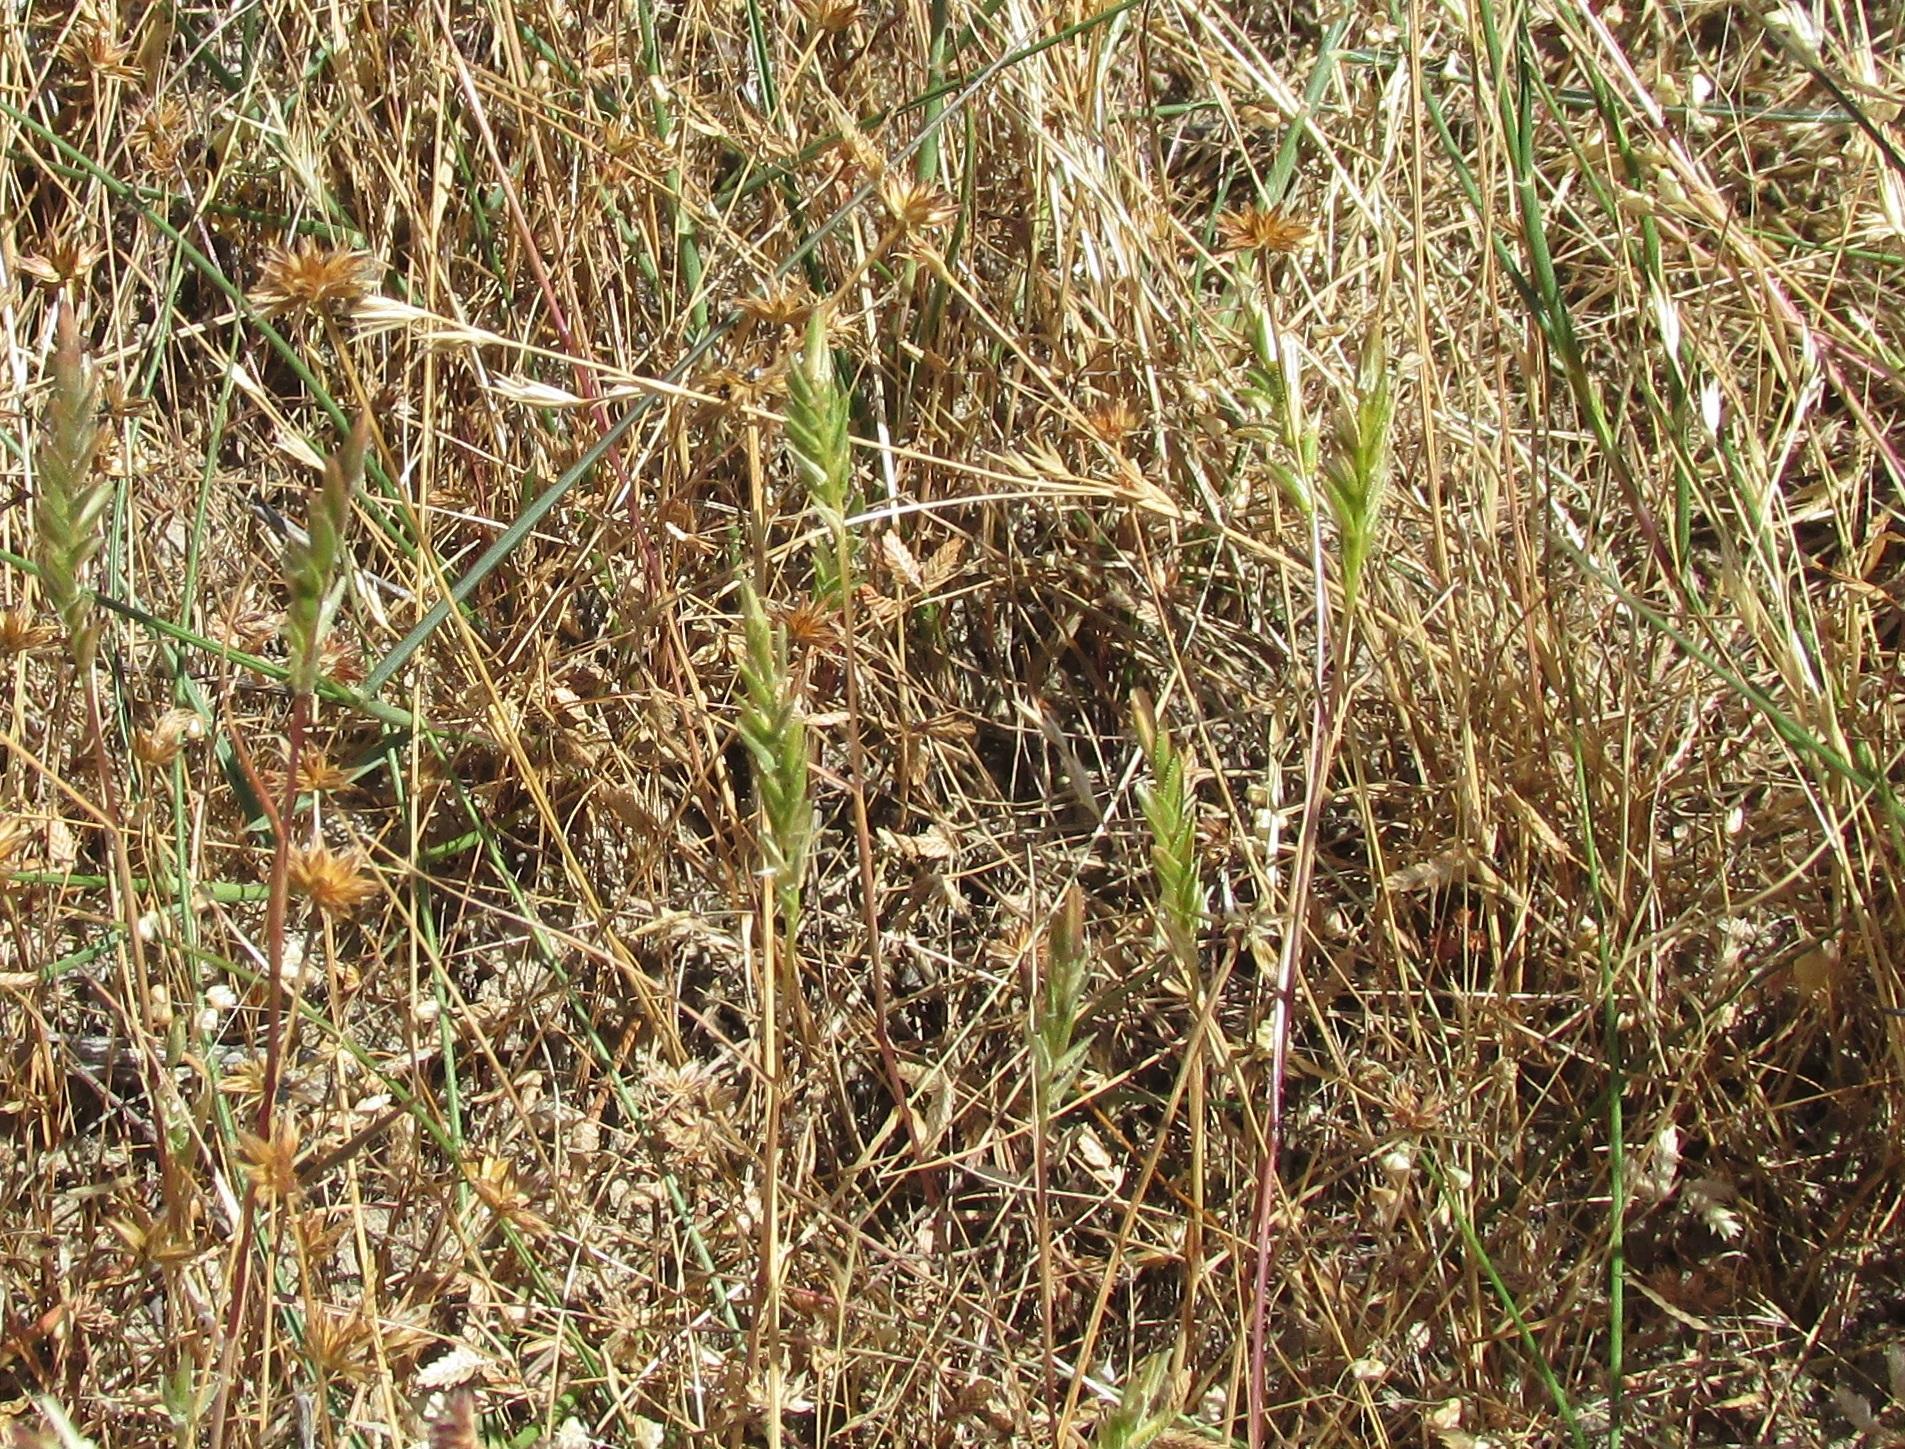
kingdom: Plantae
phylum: Tracheophyta
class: Liliopsida
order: Poales
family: Poaceae
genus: Pentameris
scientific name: Pentameris pholiuroides
